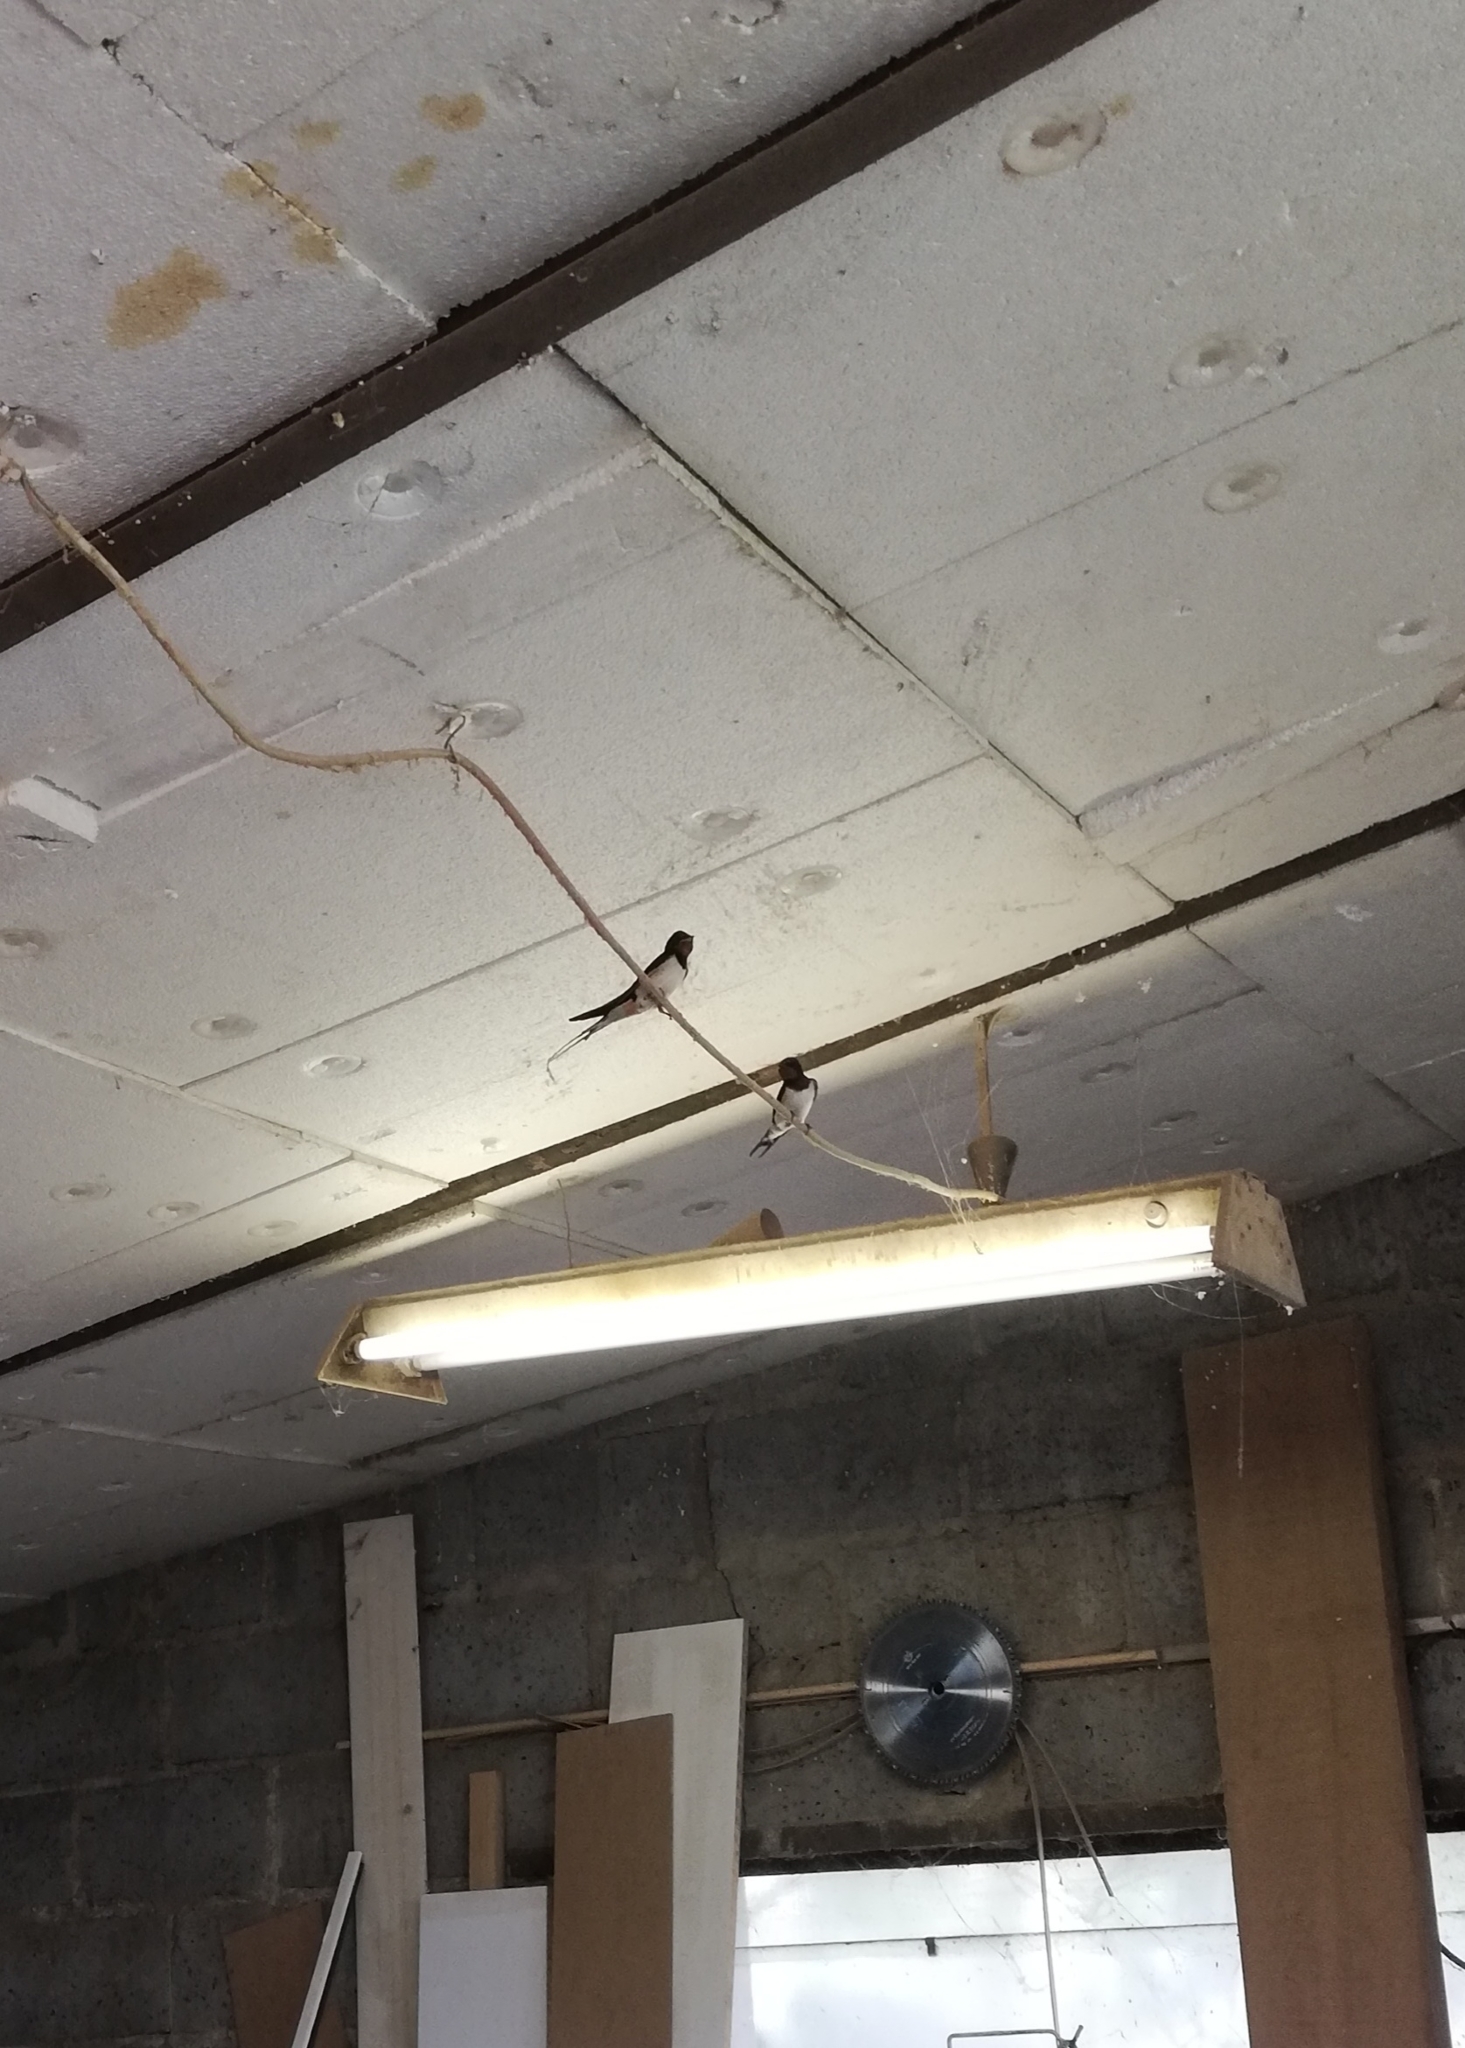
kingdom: Animalia
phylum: Chordata
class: Aves
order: Passeriformes
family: Hirundinidae
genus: Hirundo
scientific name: Hirundo rustica
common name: Barn swallow
